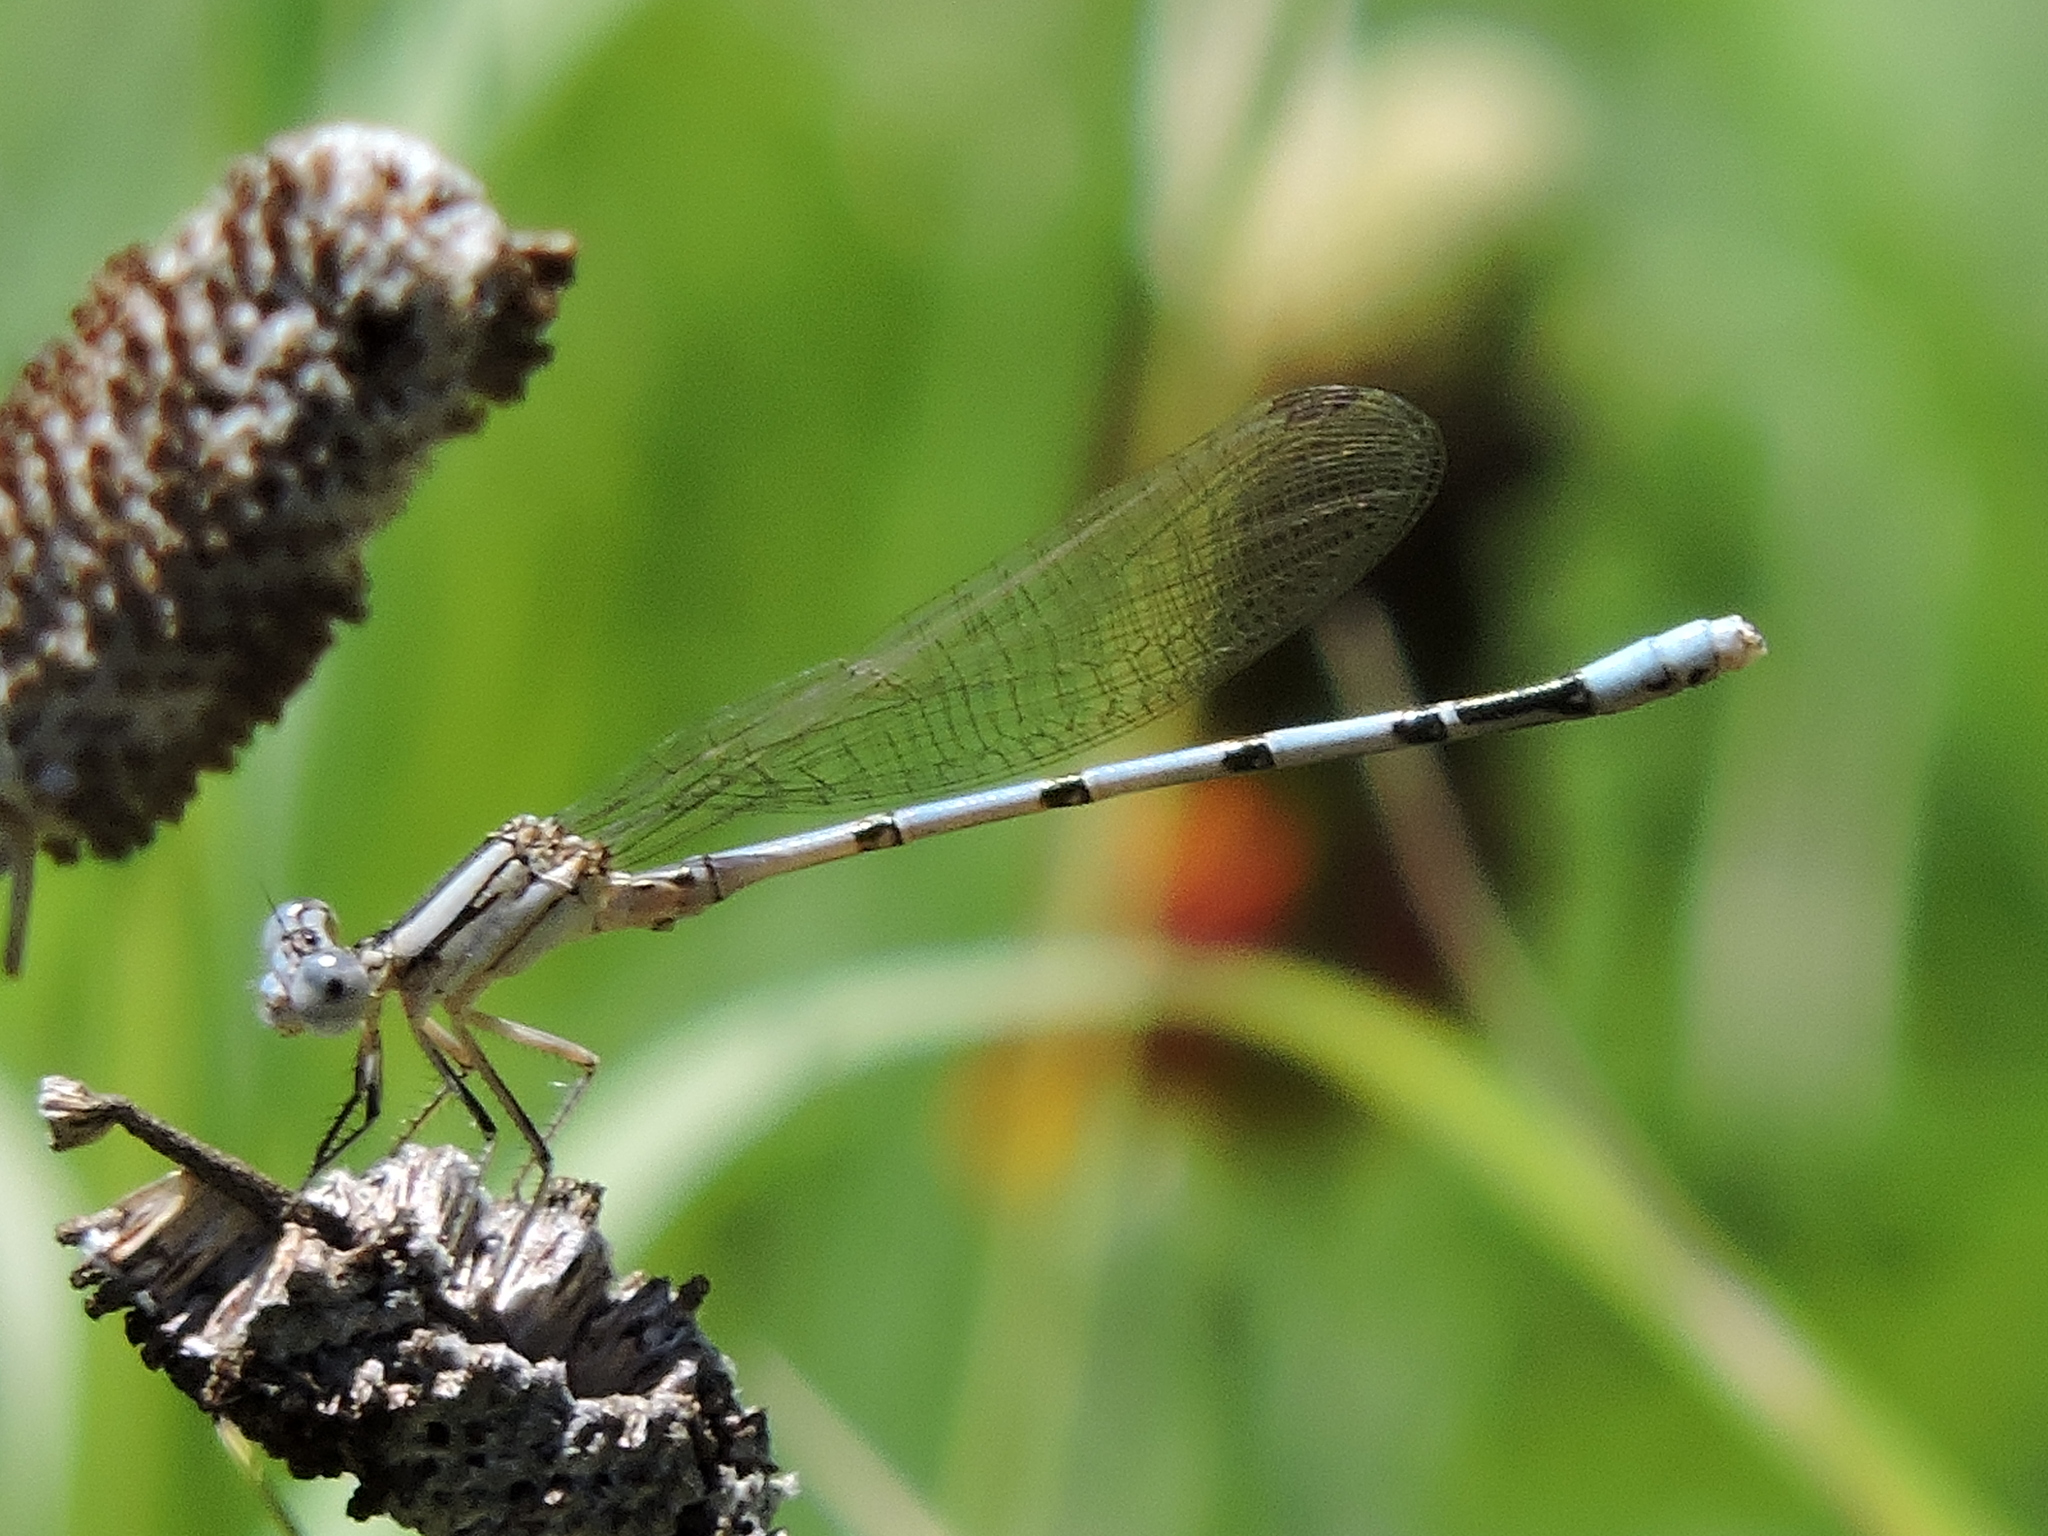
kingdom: Animalia
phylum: Arthropoda
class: Insecta
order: Odonata
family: Coenagrionidae
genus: Argia
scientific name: Argia nahuana
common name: Aztec dancer
